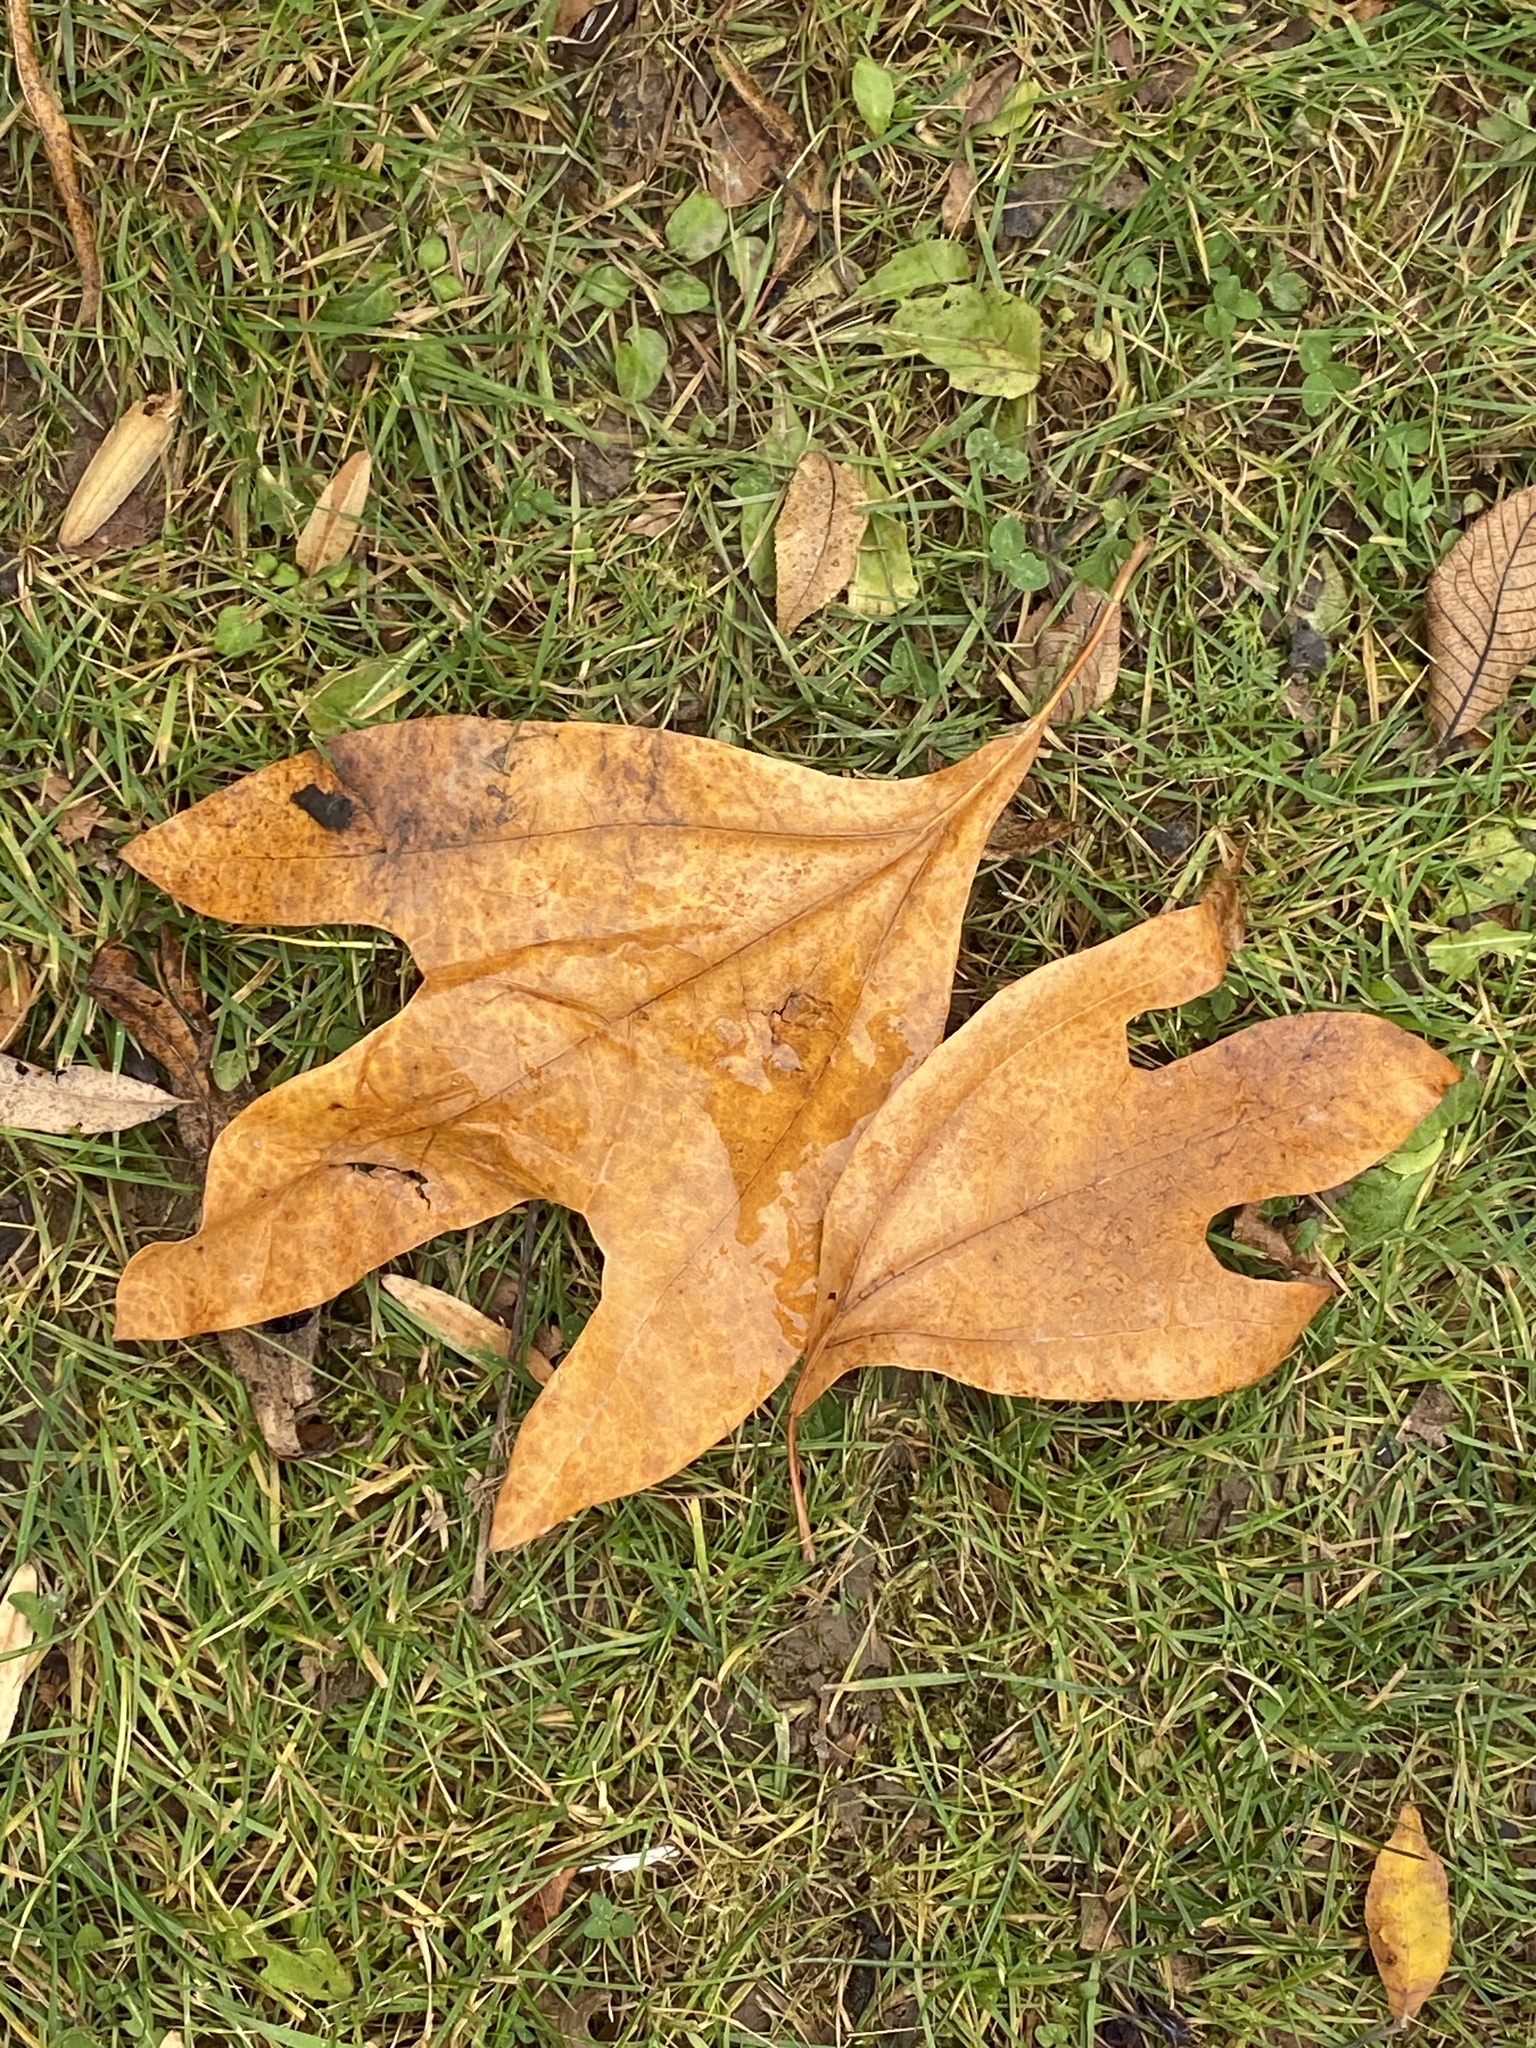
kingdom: Plantae
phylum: Tracheophyta
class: Magnoliopsida
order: Laurales
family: Lauraceae
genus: Sassafras
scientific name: Sassafras albidum
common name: Sassafras
